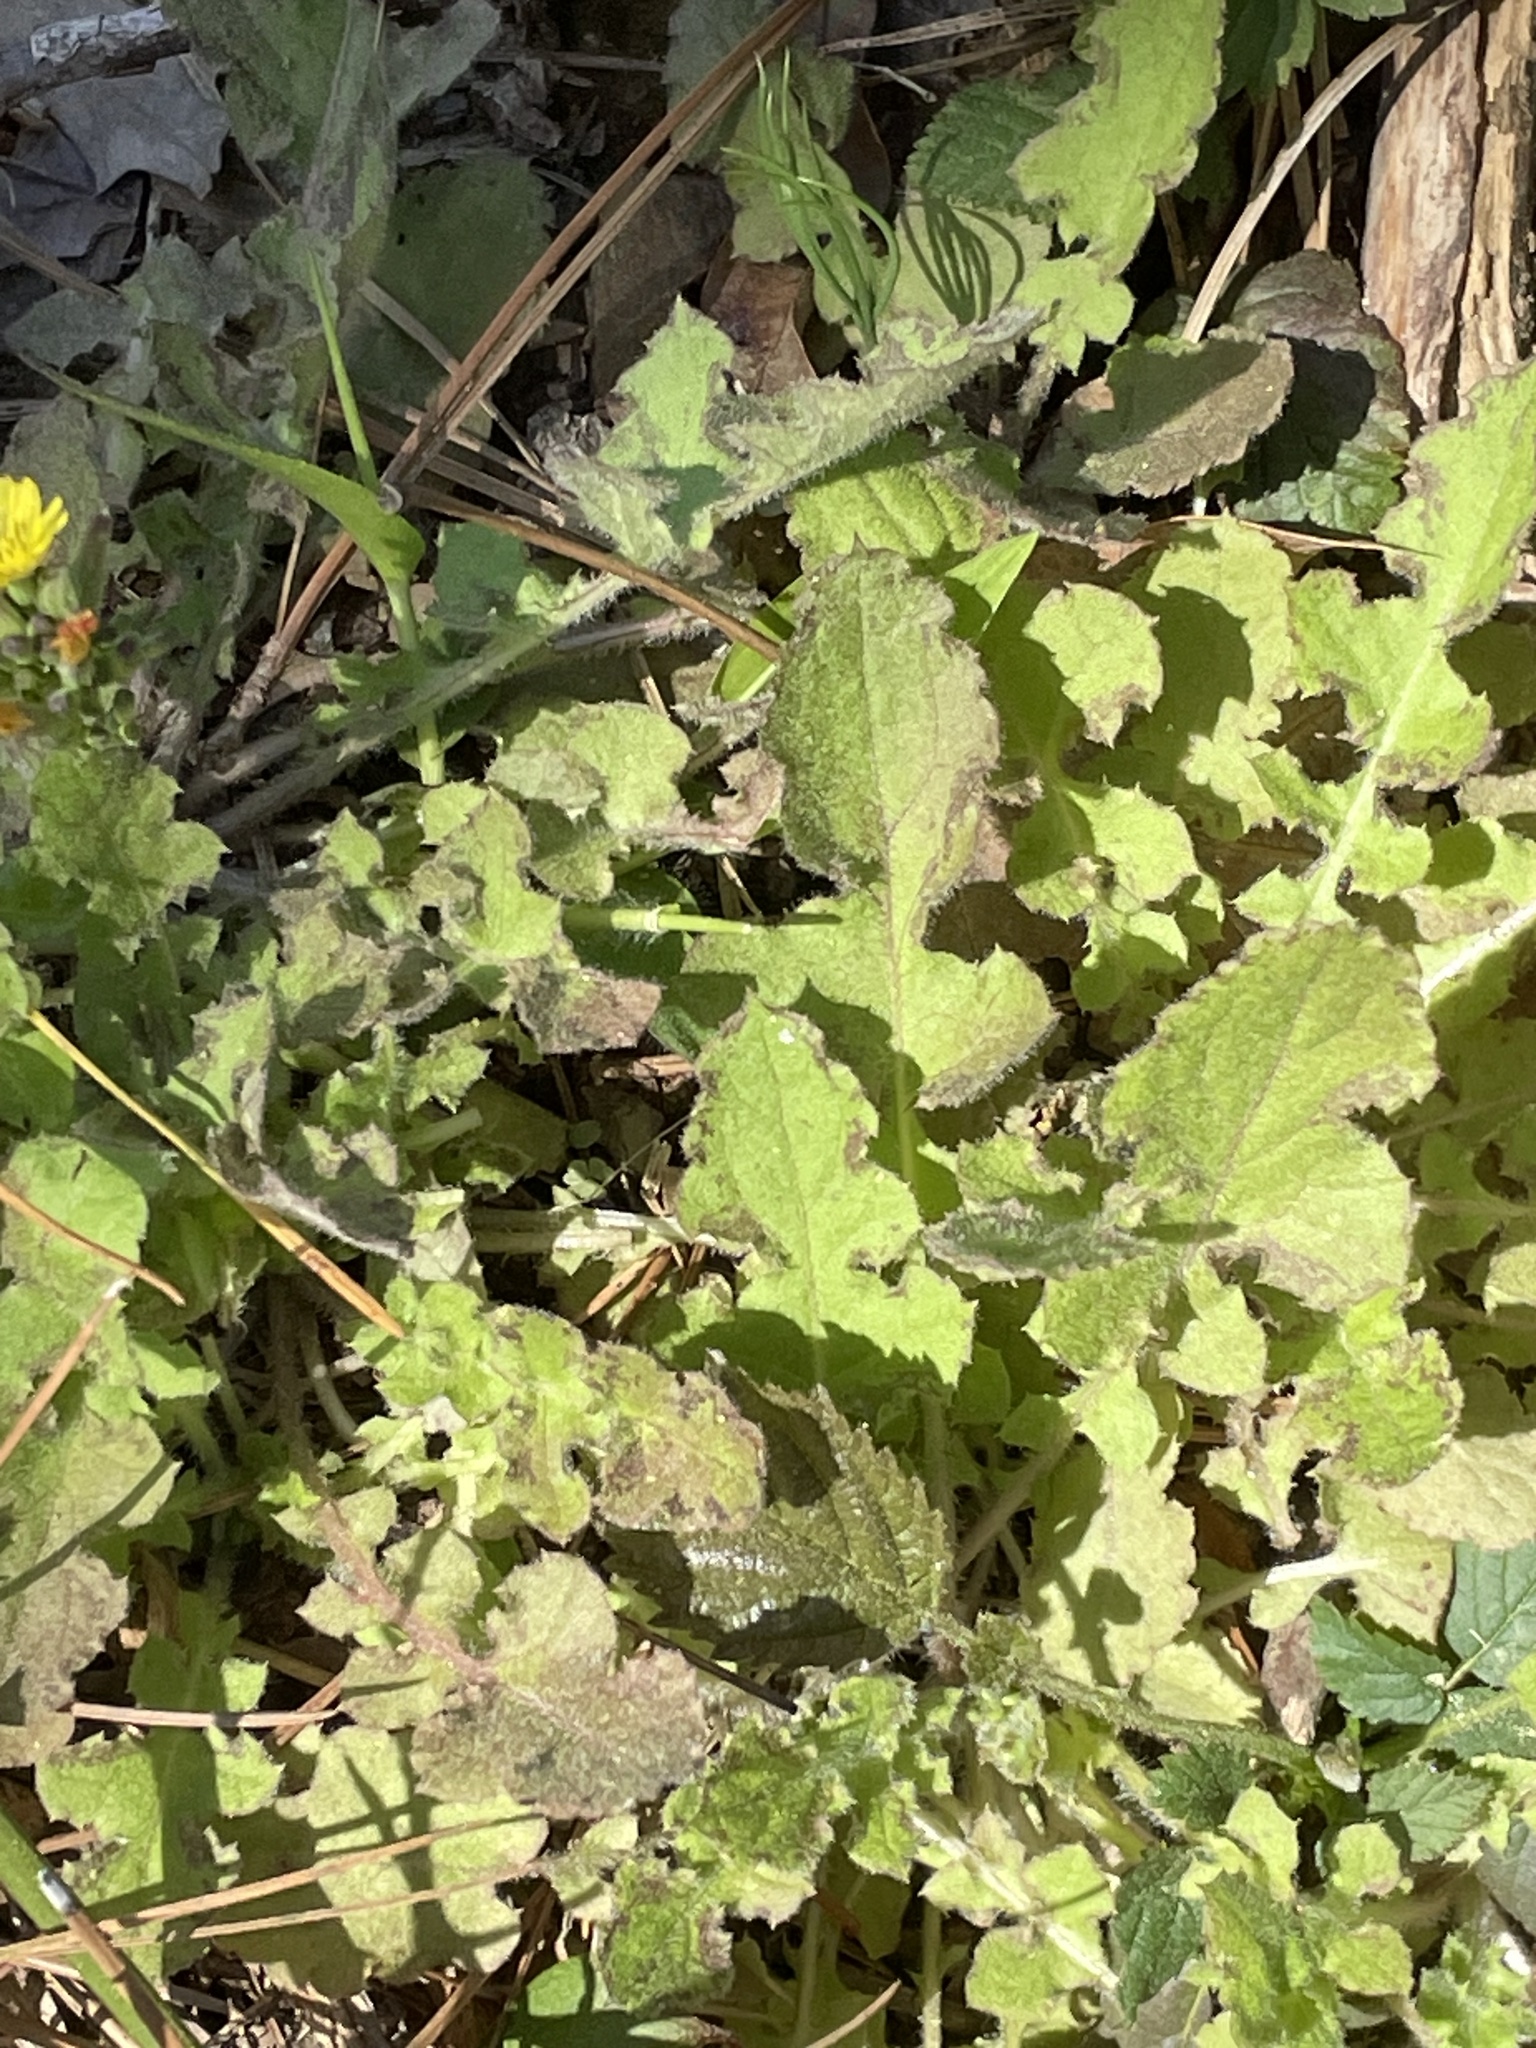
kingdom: Plantae
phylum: Tracheophyta
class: Magnoliopsida
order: Asterales
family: Asteraceae
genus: Youngia
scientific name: Youngia japonica
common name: Oriental false hawksbeard
